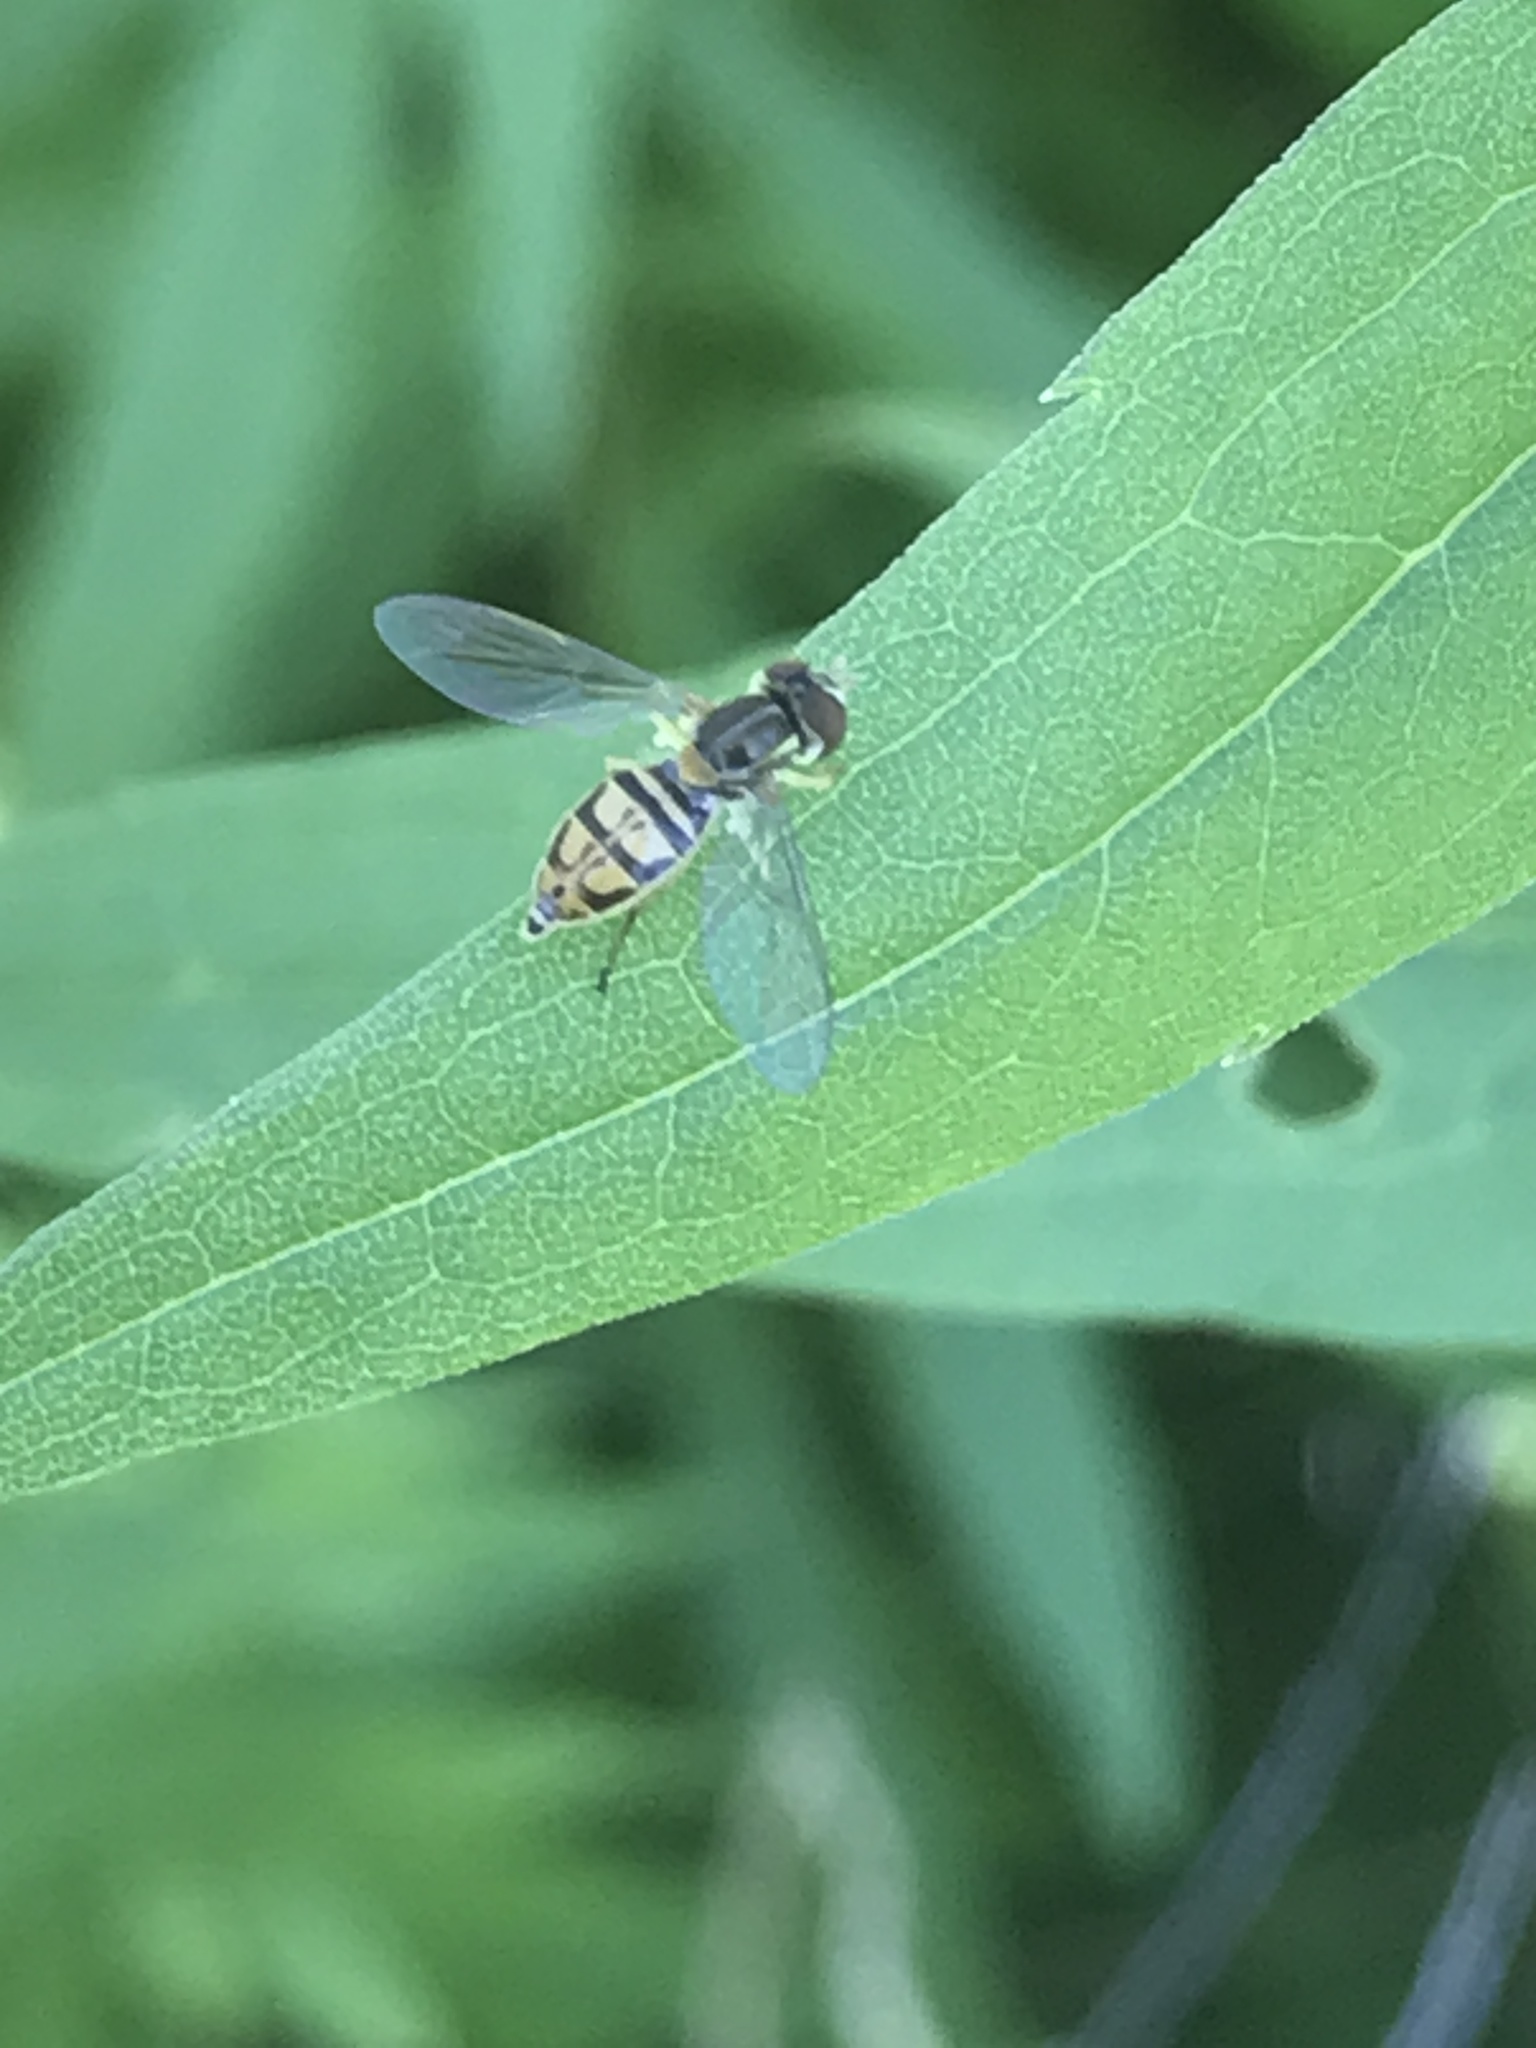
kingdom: Animalia
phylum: Arthropoda
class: Insecta
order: Diptera
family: Syrphidae
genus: Toxomerus
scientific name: Toxomerus marginatus
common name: Syrphid fly
